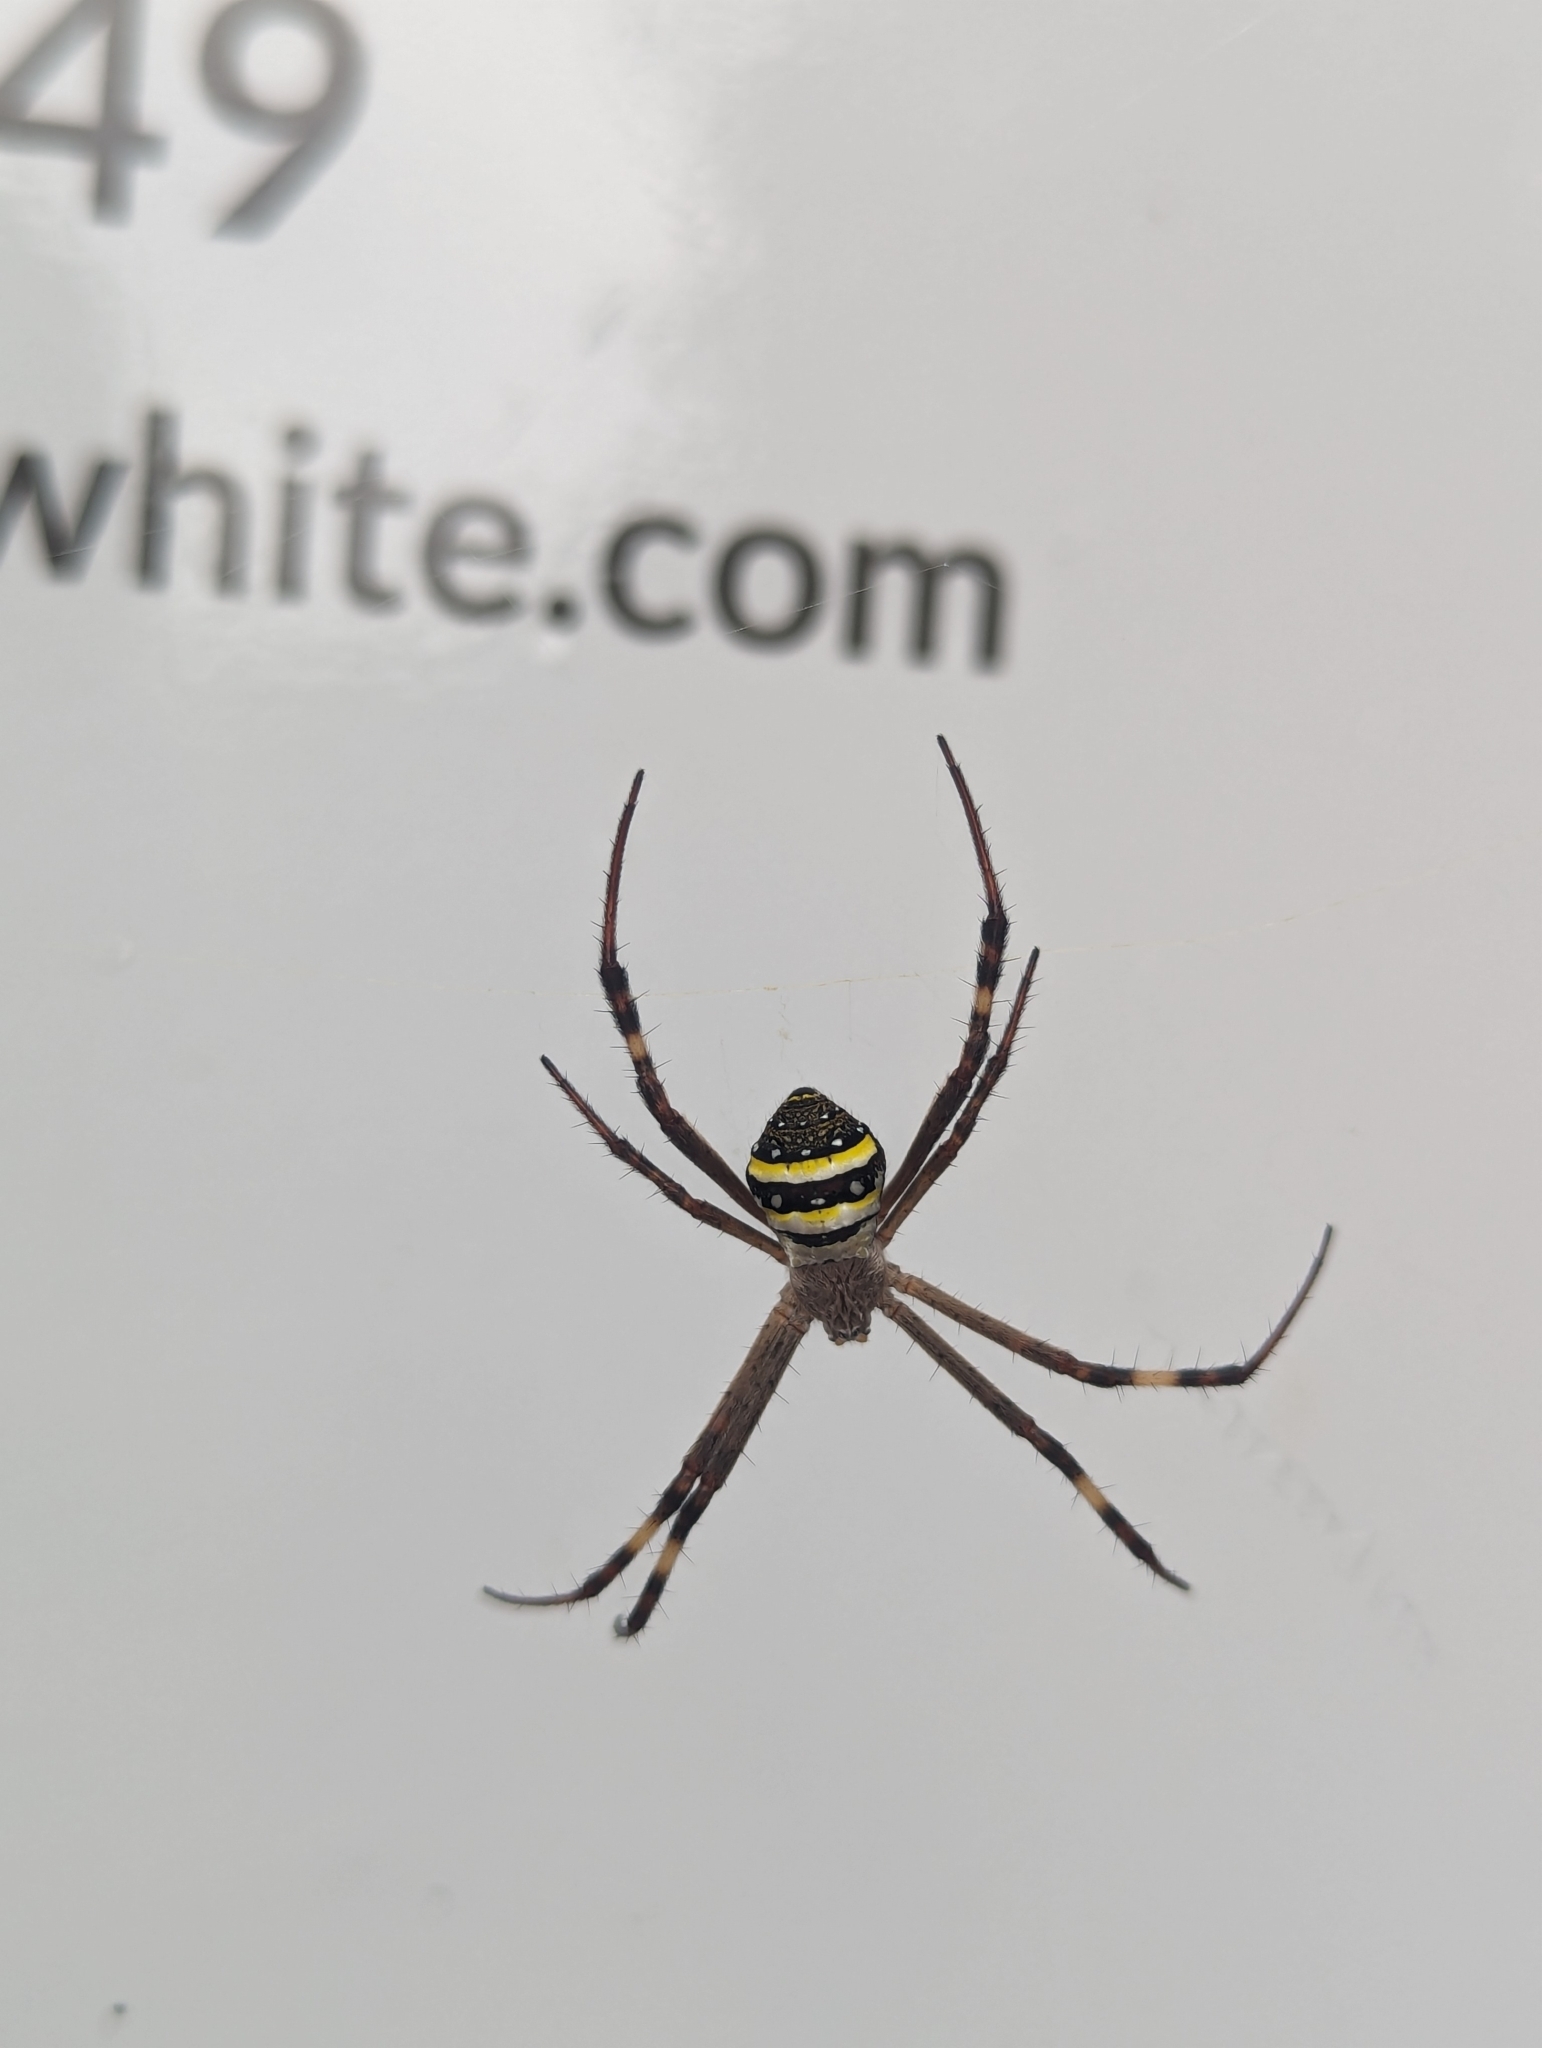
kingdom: Animalia
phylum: Arthropoda
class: Arachnida
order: Araneae
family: Araneidae
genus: Argiope
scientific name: Argiope keyserlingi
